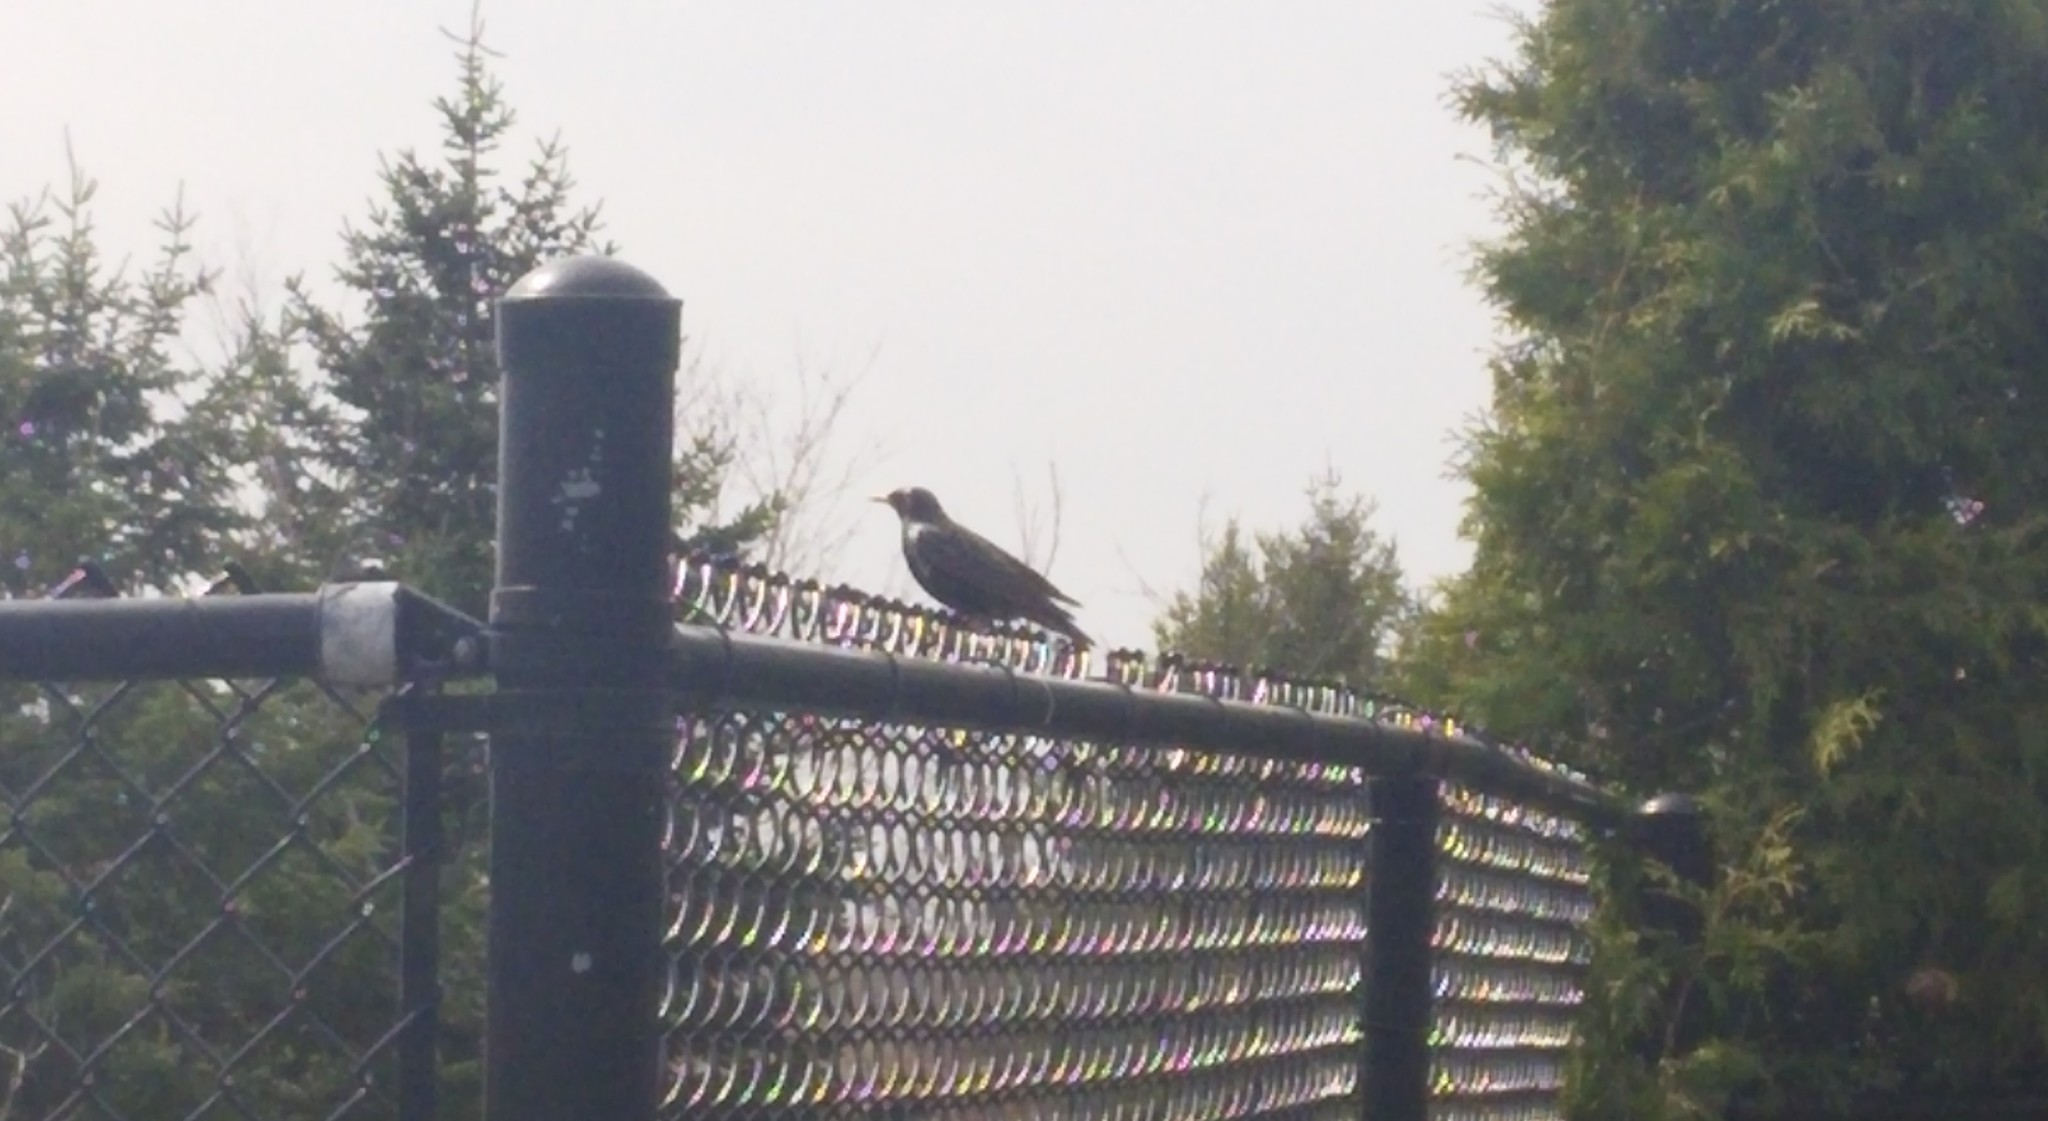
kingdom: Animalia
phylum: Chordata
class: Aves
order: Passeriformes
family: Sturnidae
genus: Sturnus
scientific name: Sturnus vulgaris
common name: Common starling
